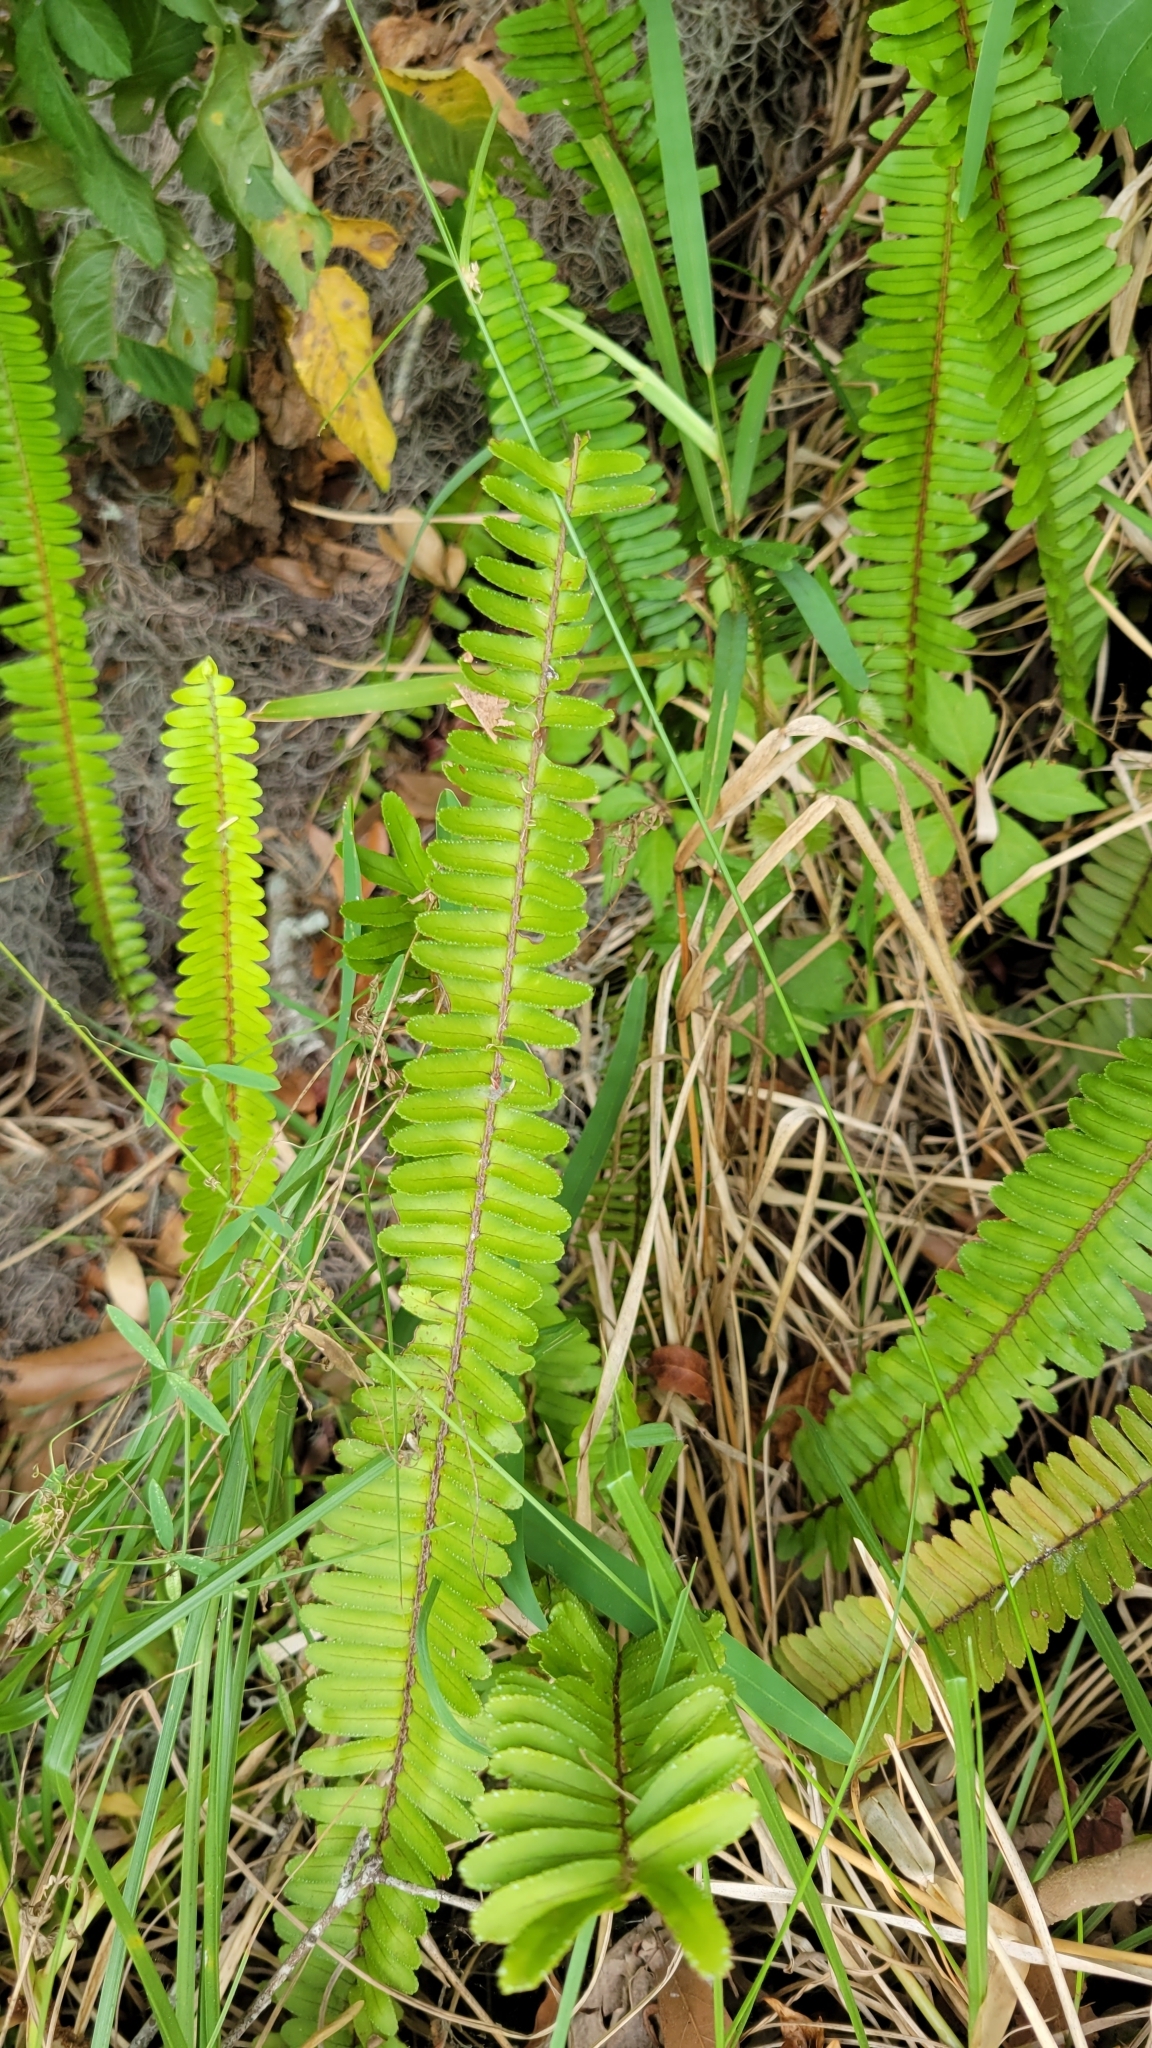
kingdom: Plantae
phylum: Tracheophyta
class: Polypodiopsida
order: Polypodiales
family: Nephrolepidaceae
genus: Nephrolepis
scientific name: Nephrolepis cordifolia
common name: Narrow swordfern
